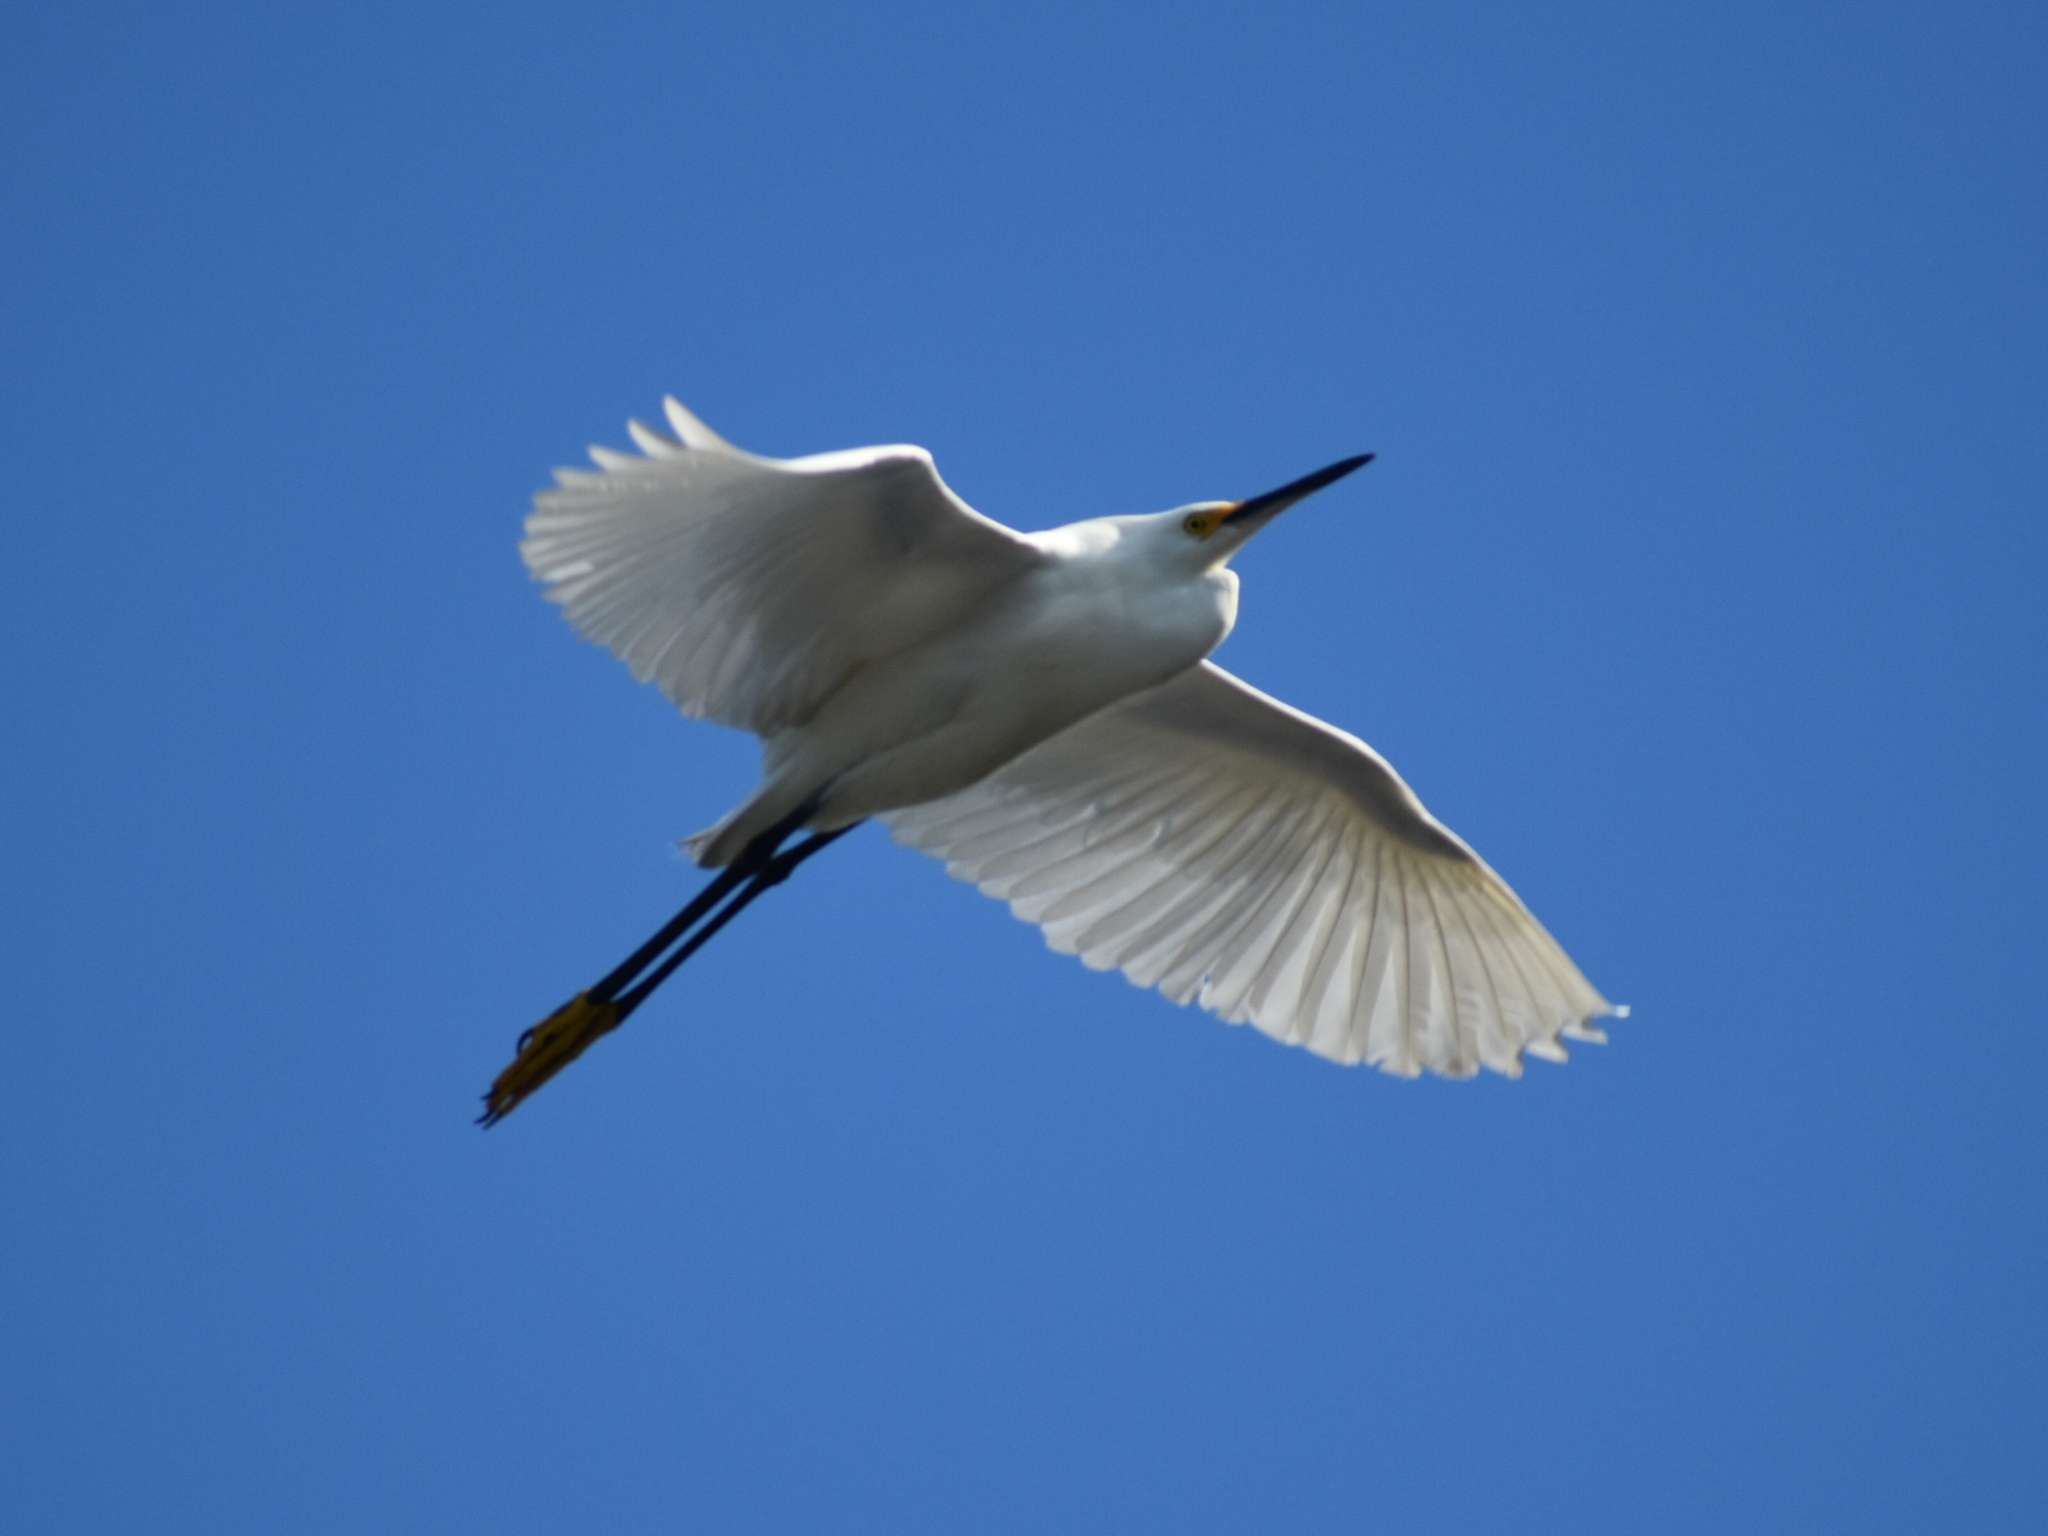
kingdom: Animalia
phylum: Chordata
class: Aves
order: Pelecaniformes
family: Ardeidae
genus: Egretta
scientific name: Egretta thula
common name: Snowy egret
